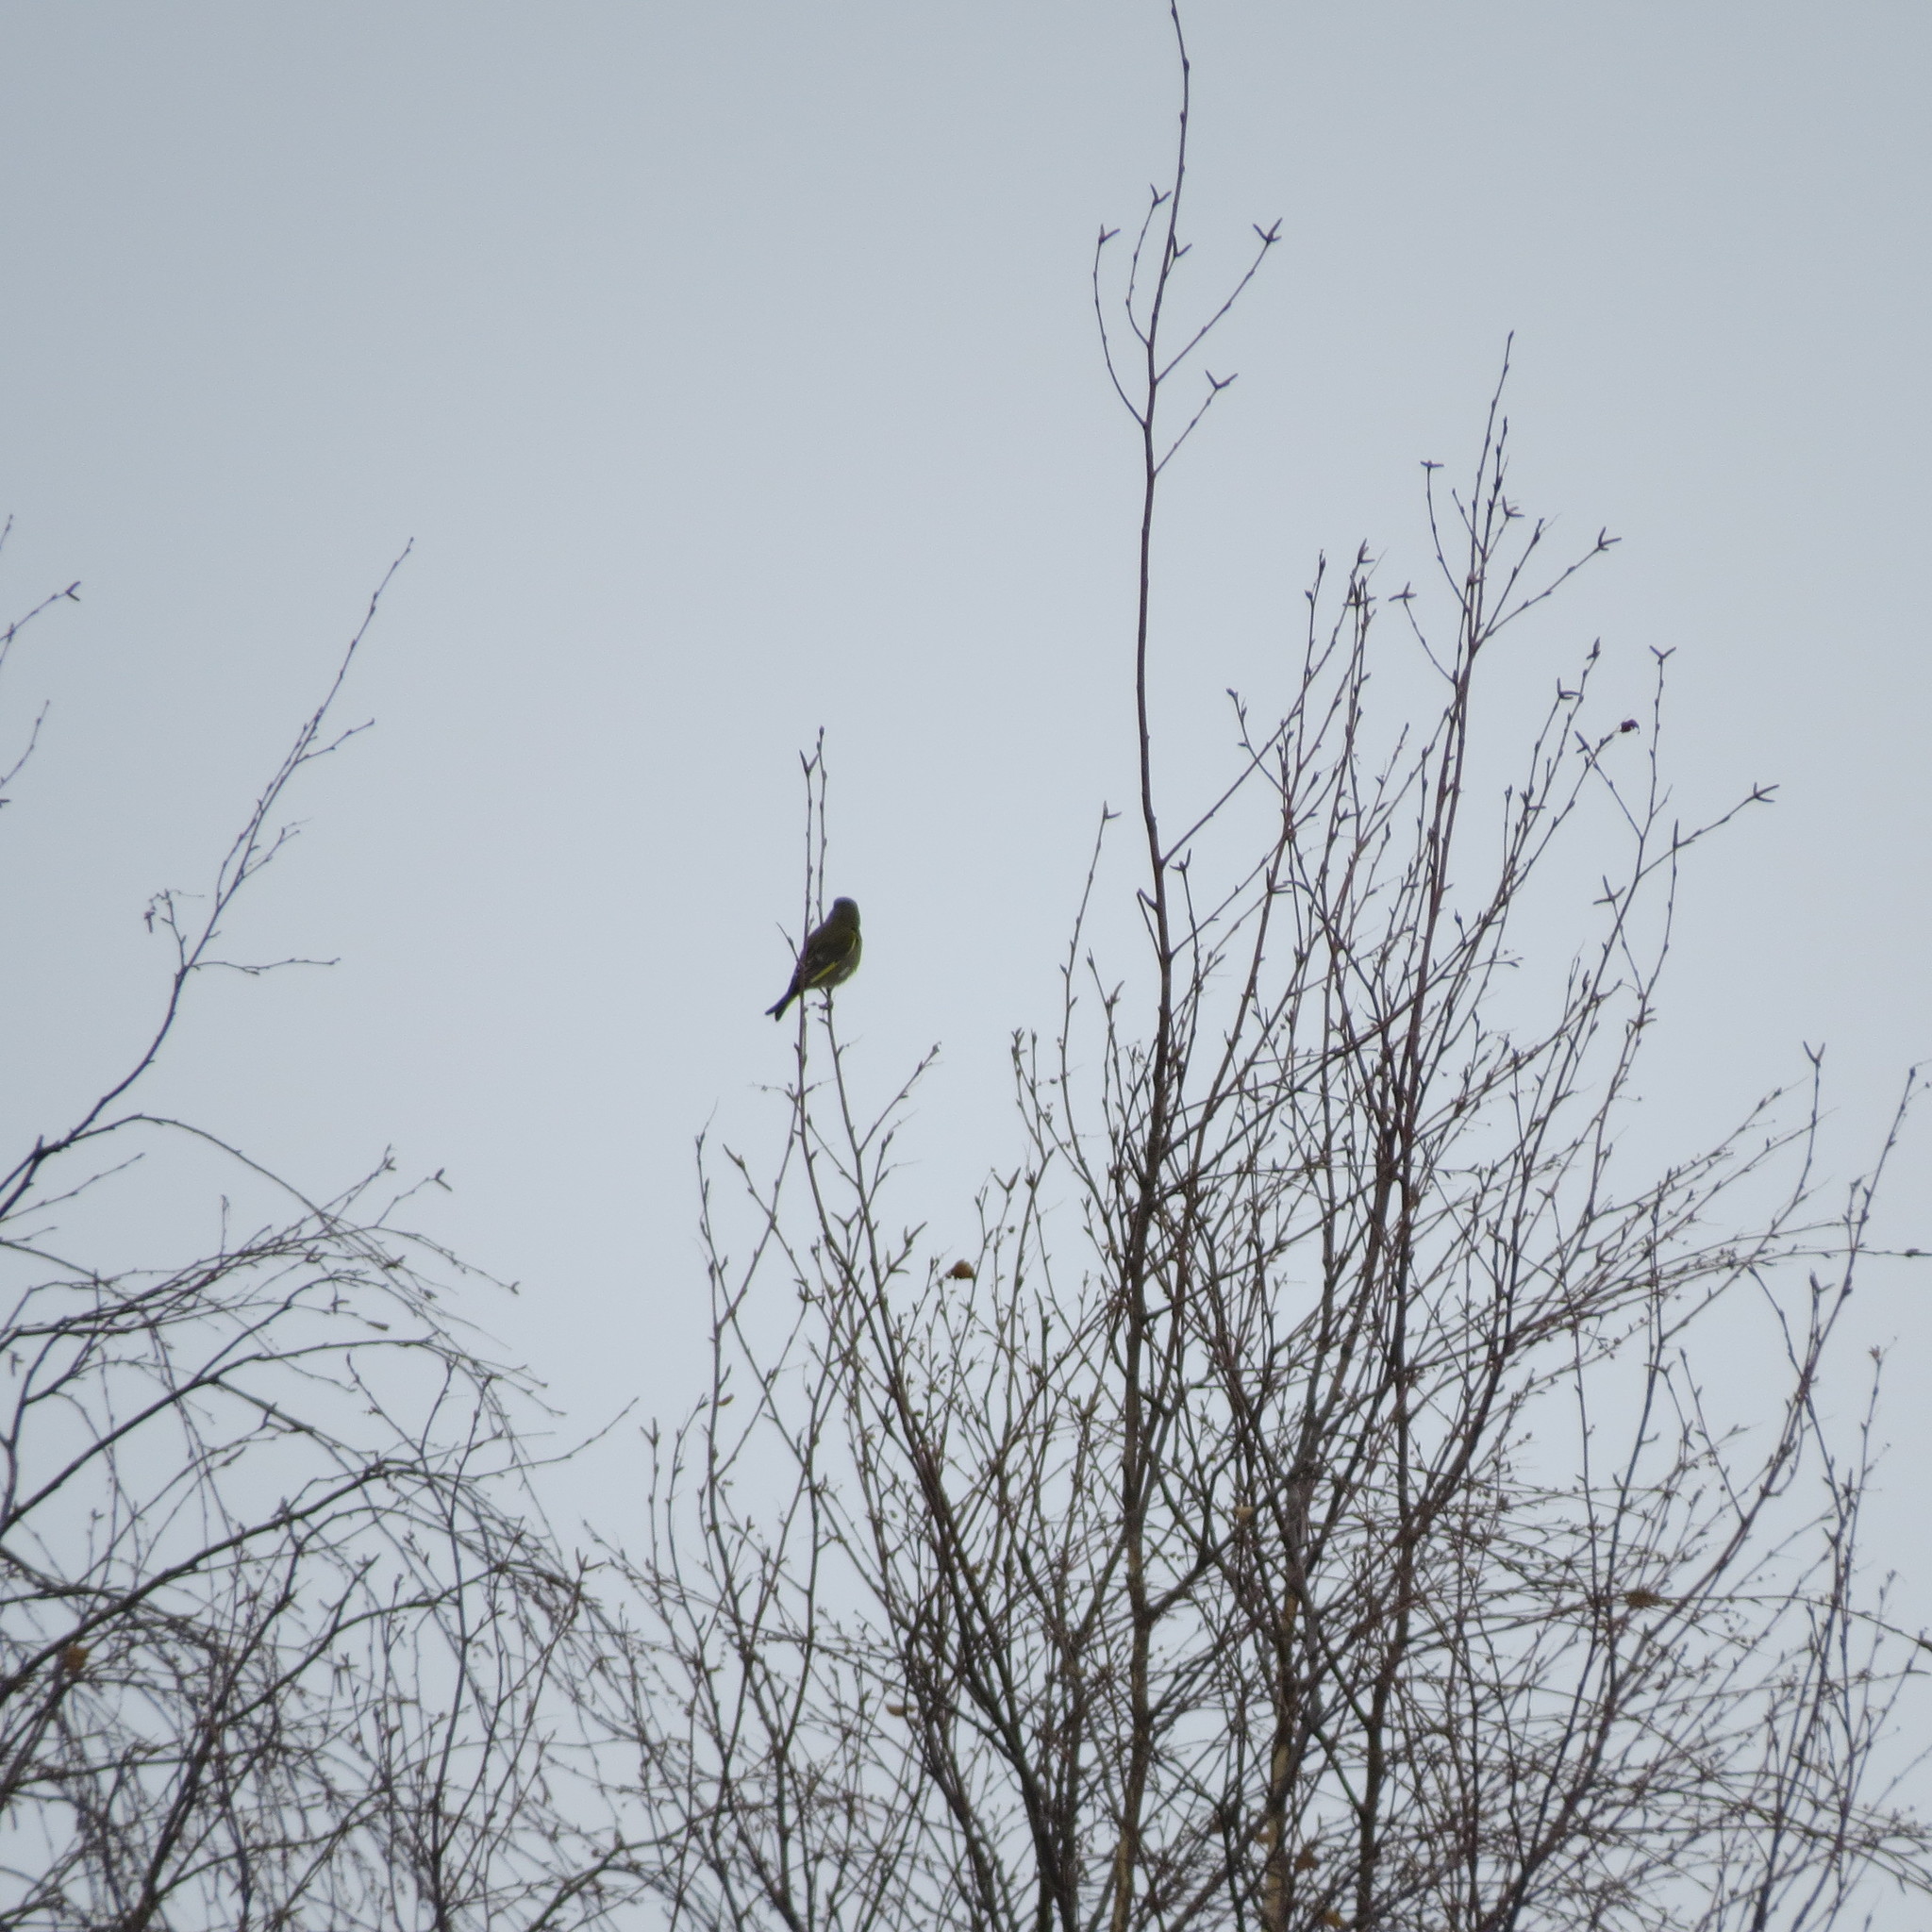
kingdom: Plantae
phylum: Tracheophyta
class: Liliopsida
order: Poales
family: Poaceae
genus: Chloris
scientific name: Chloris chloris
